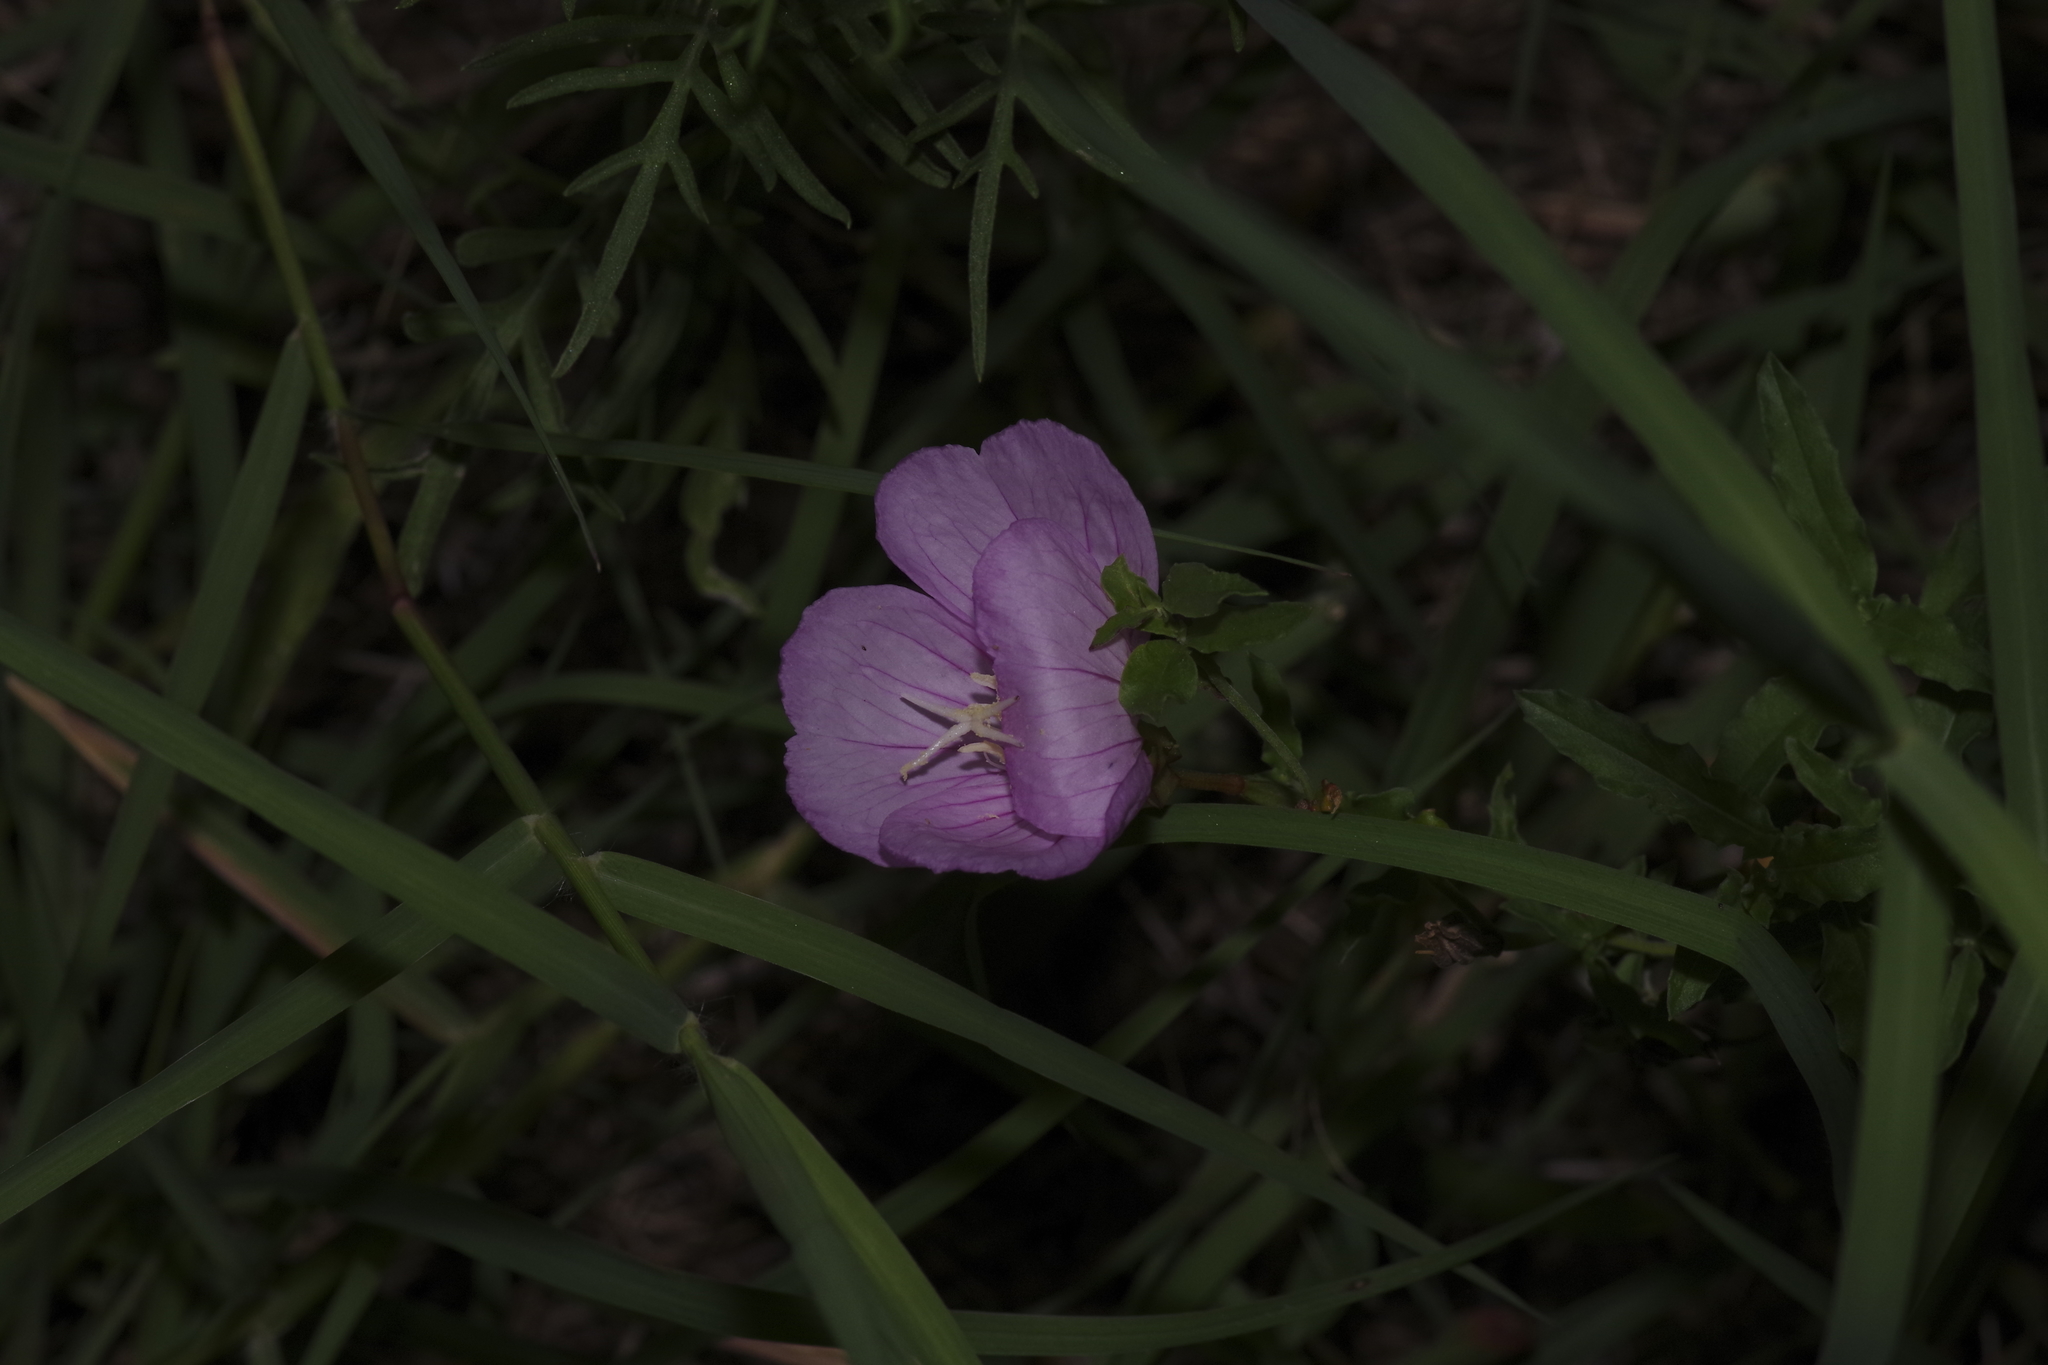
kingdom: Plantae
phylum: Tracheophyta
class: Magnoliopsida
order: Myrtales
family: Onagraceae
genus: Oenothera
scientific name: Oenothera speciosa
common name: White evening-primrose
